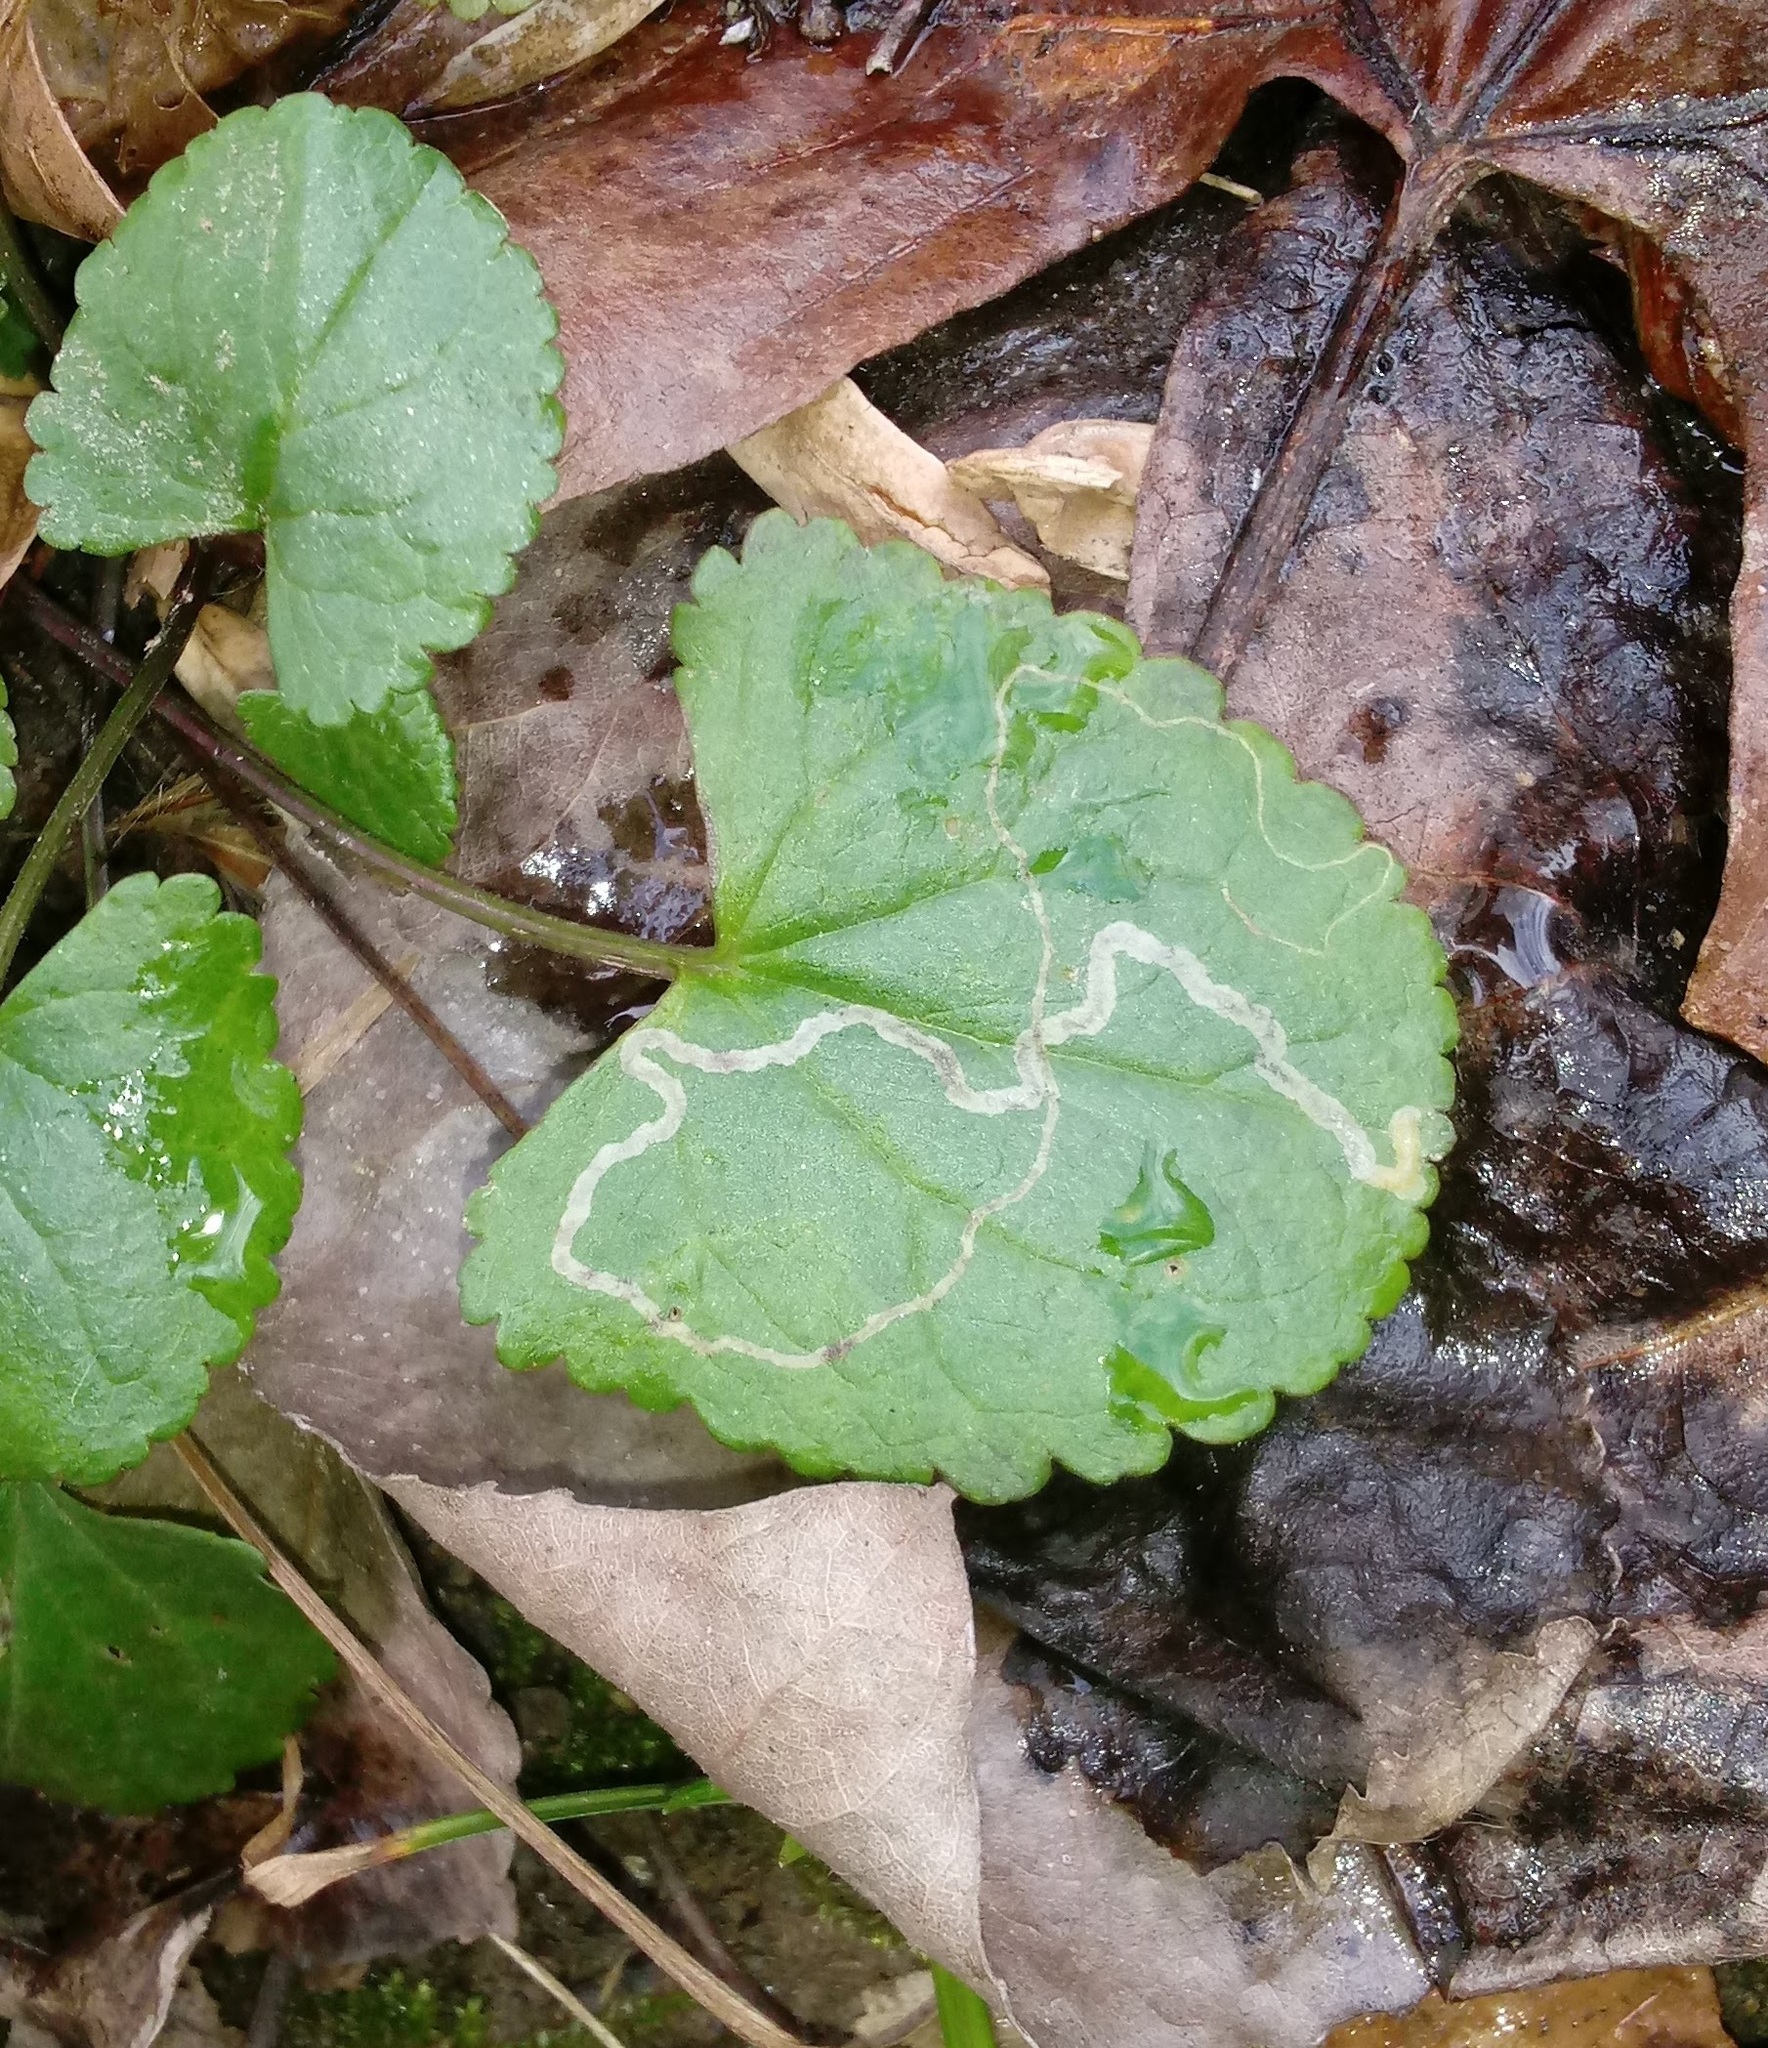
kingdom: Animalia
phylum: Arthropoda
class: Insecta
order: Lepidoptera
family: Gracillariidae
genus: Phyllocnistis
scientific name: Phyllocnistis insignis
